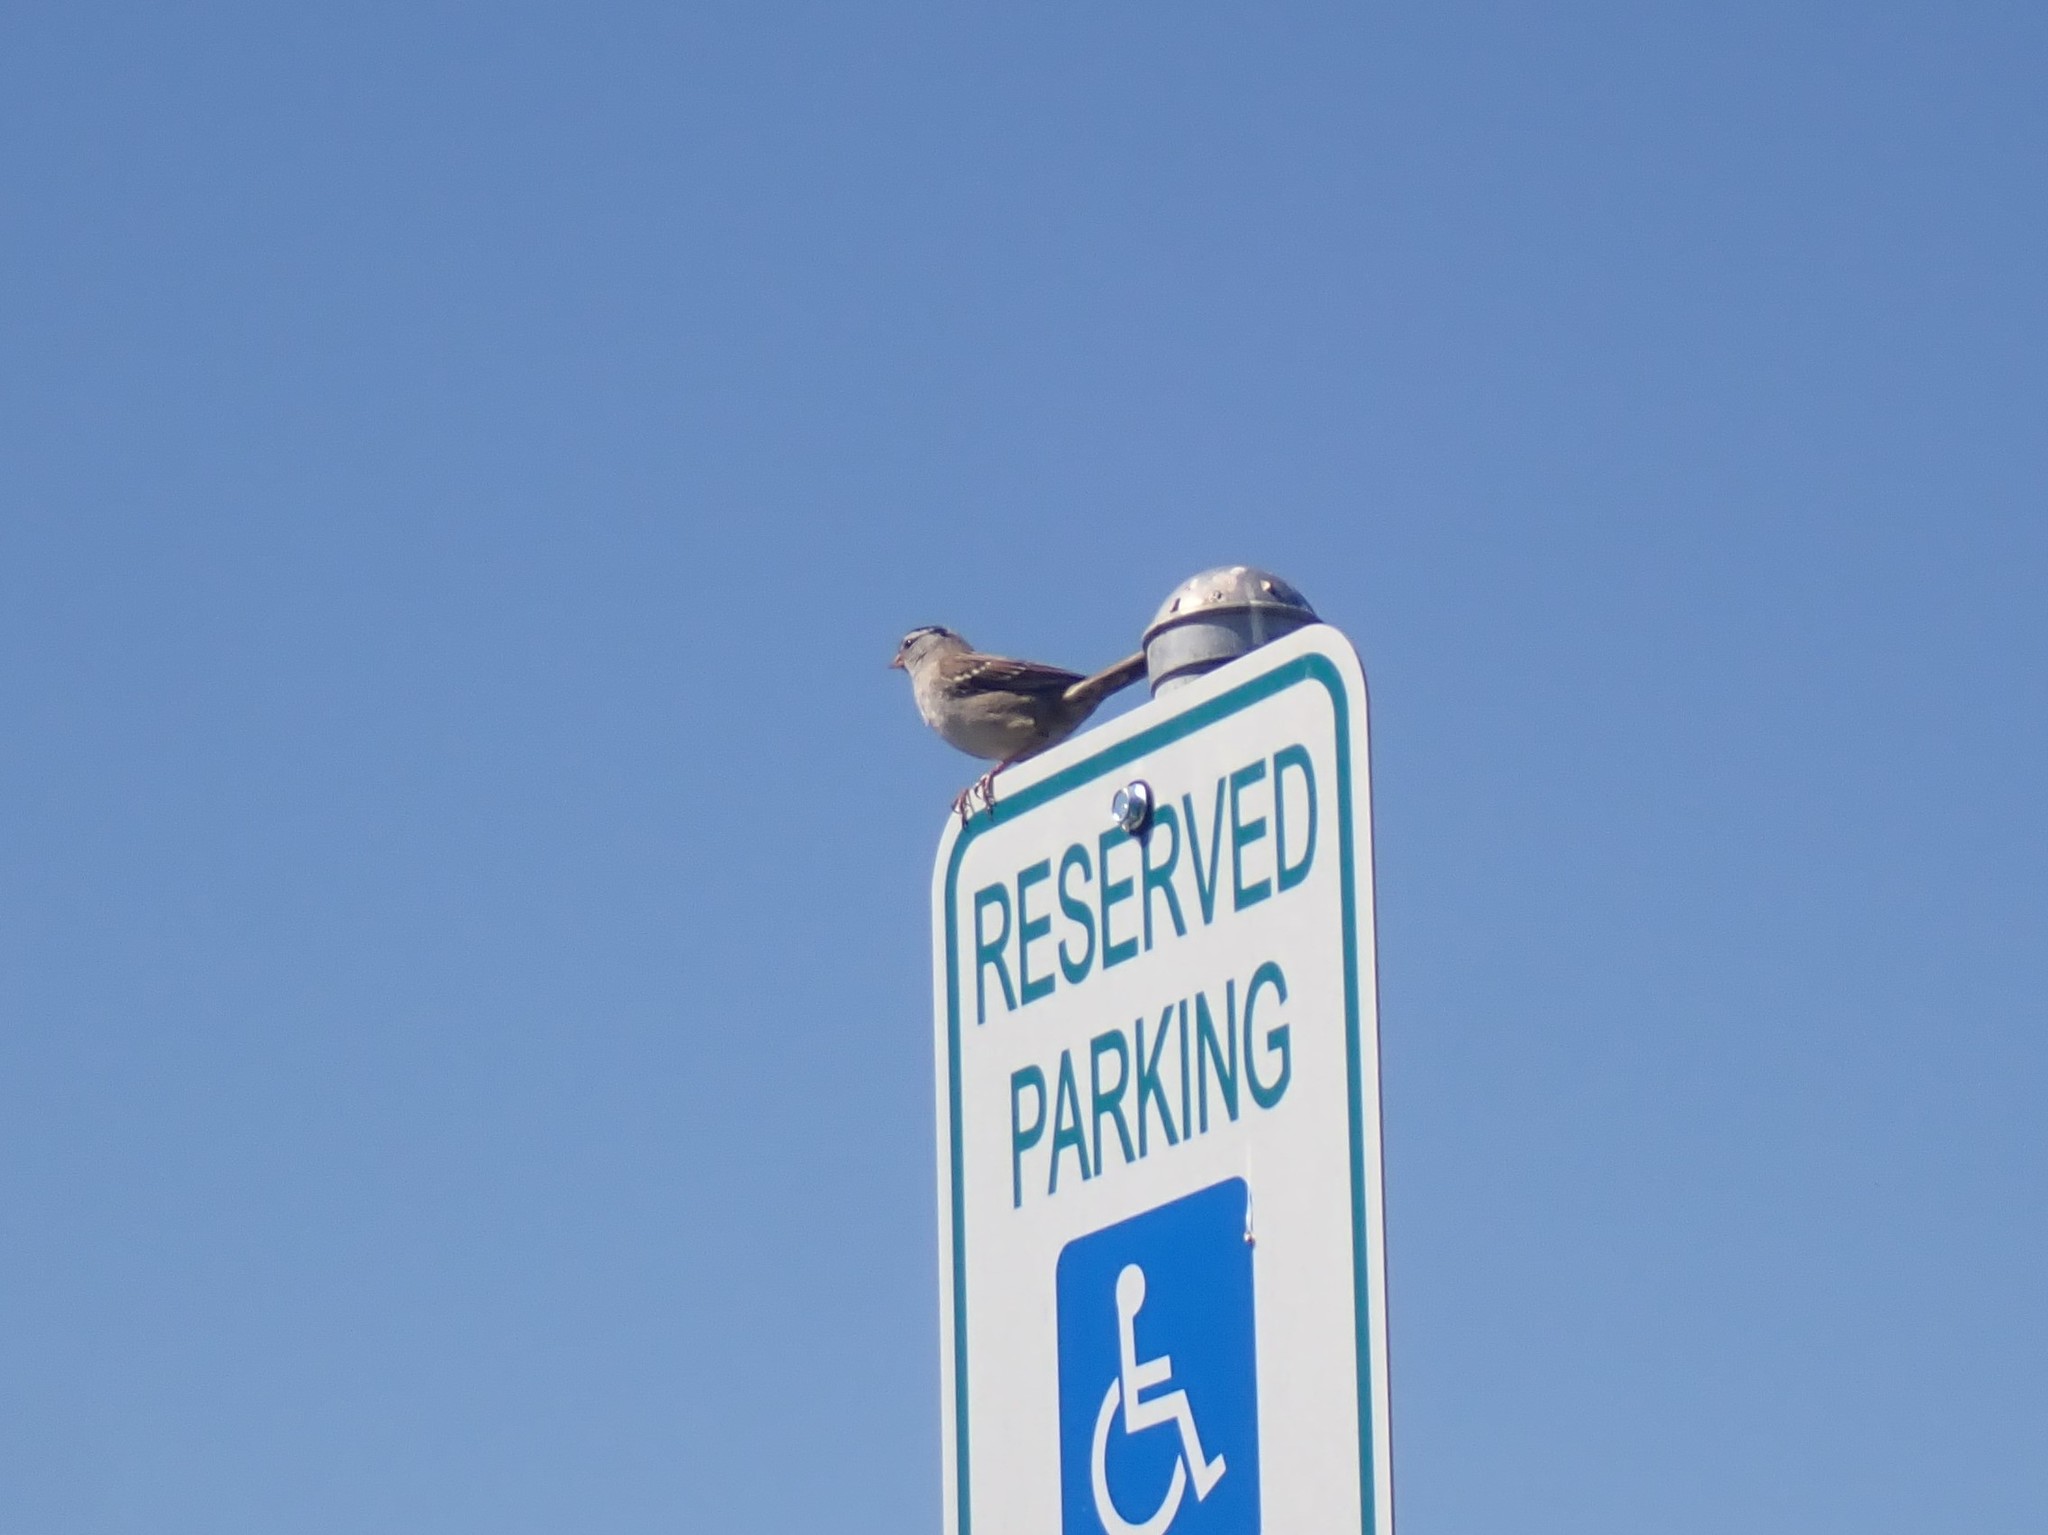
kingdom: Animalia
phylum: Chordata
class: Aves
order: Passeriformes
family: Passerellidae
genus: Zonotrichia
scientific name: Zonotrichia leucophrys
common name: White-crowned sparrow
